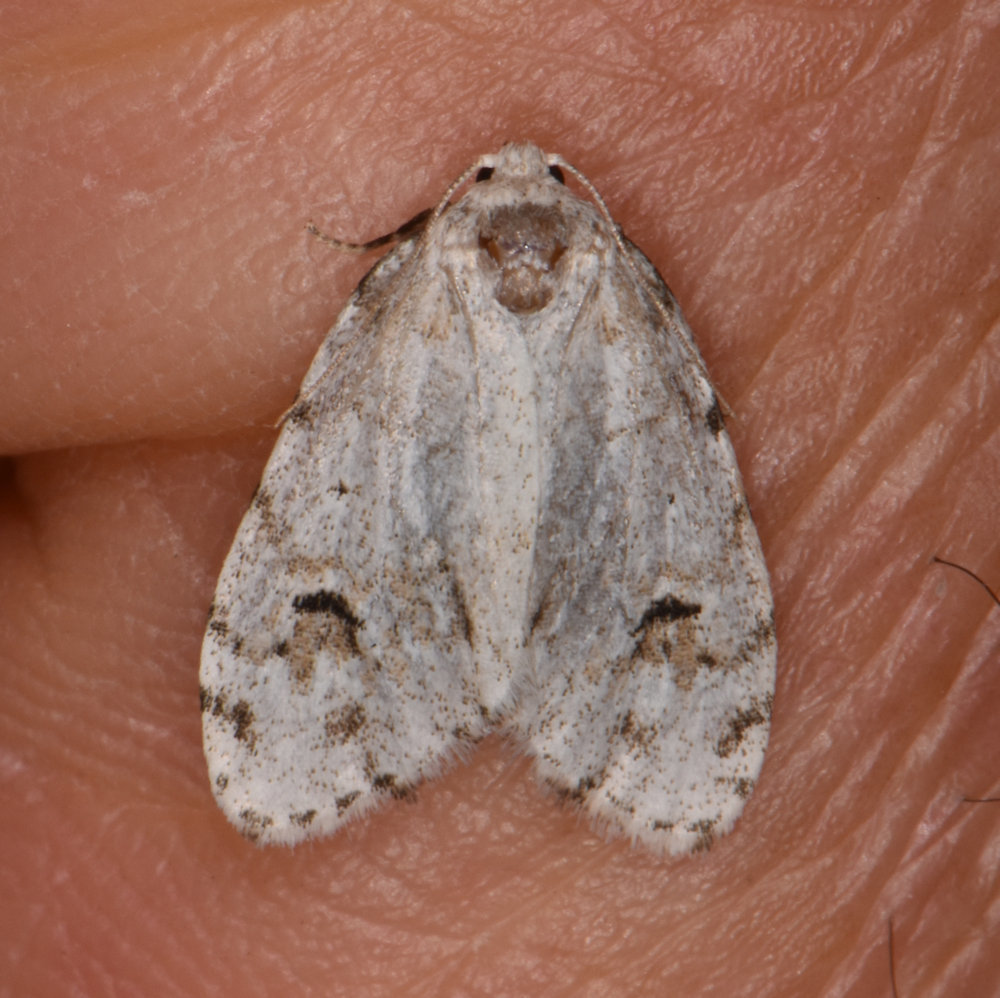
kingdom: Animalia
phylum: Arthropoda
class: Insecta
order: Lepidoptera
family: Erebidae
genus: Clemensia
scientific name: Clemensia umbrata
